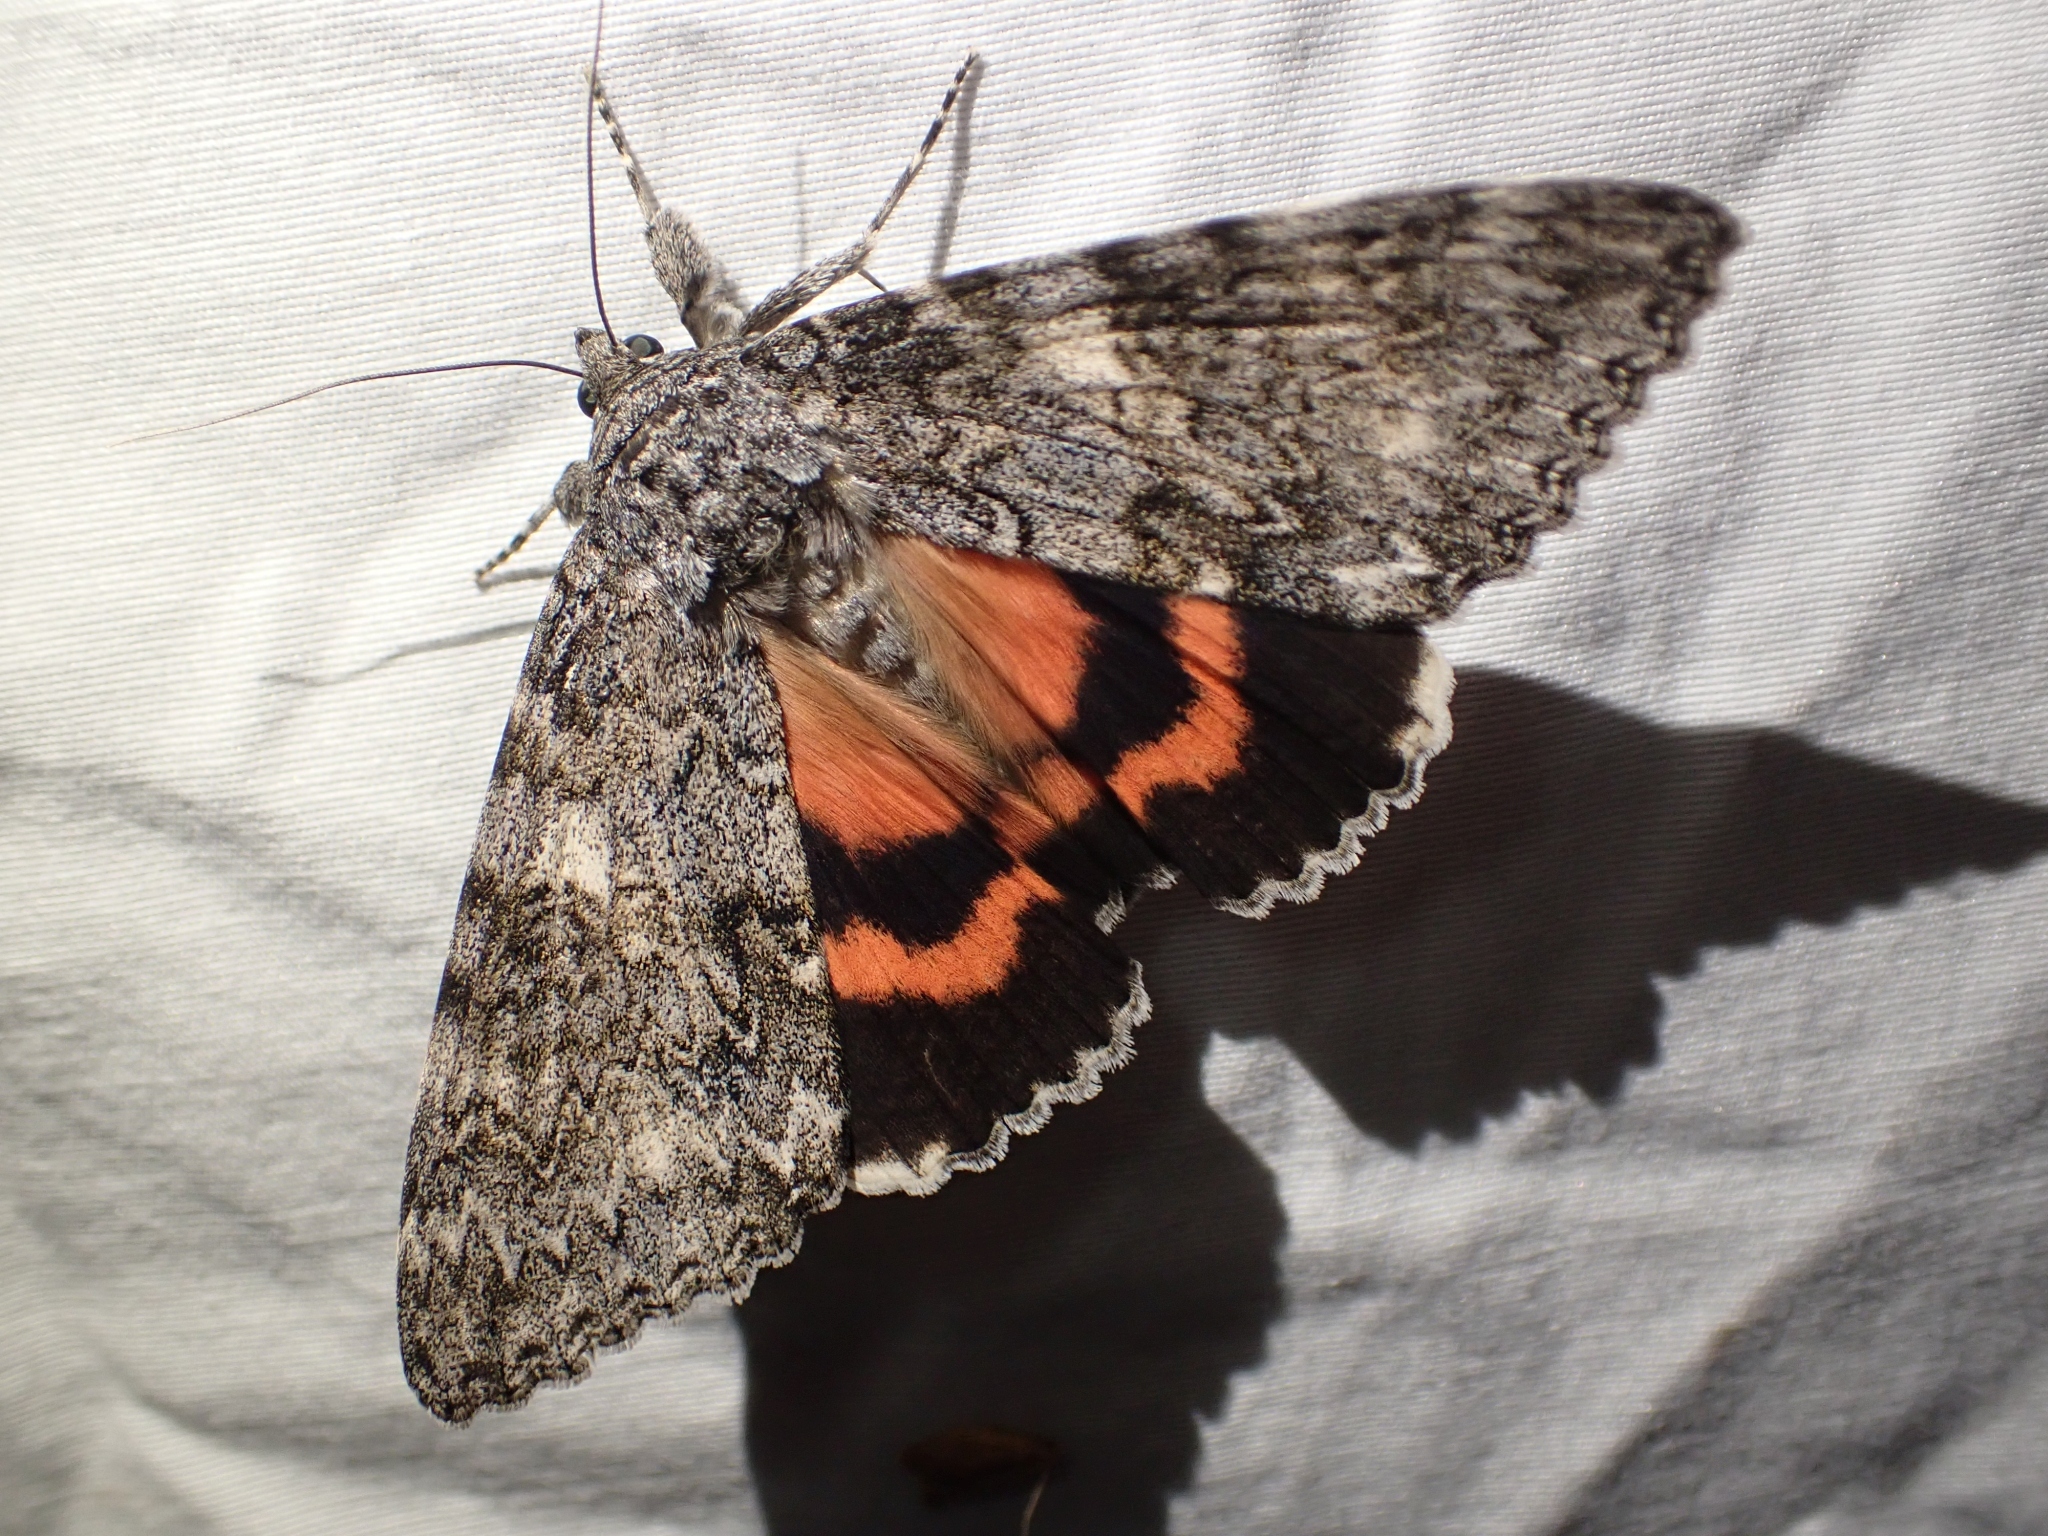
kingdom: Animalia
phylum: Arthropoda
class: Insecta
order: Lepidoptera
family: Erebidae
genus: Catocala
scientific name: Catocala unijuga
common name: Once-married underwing
